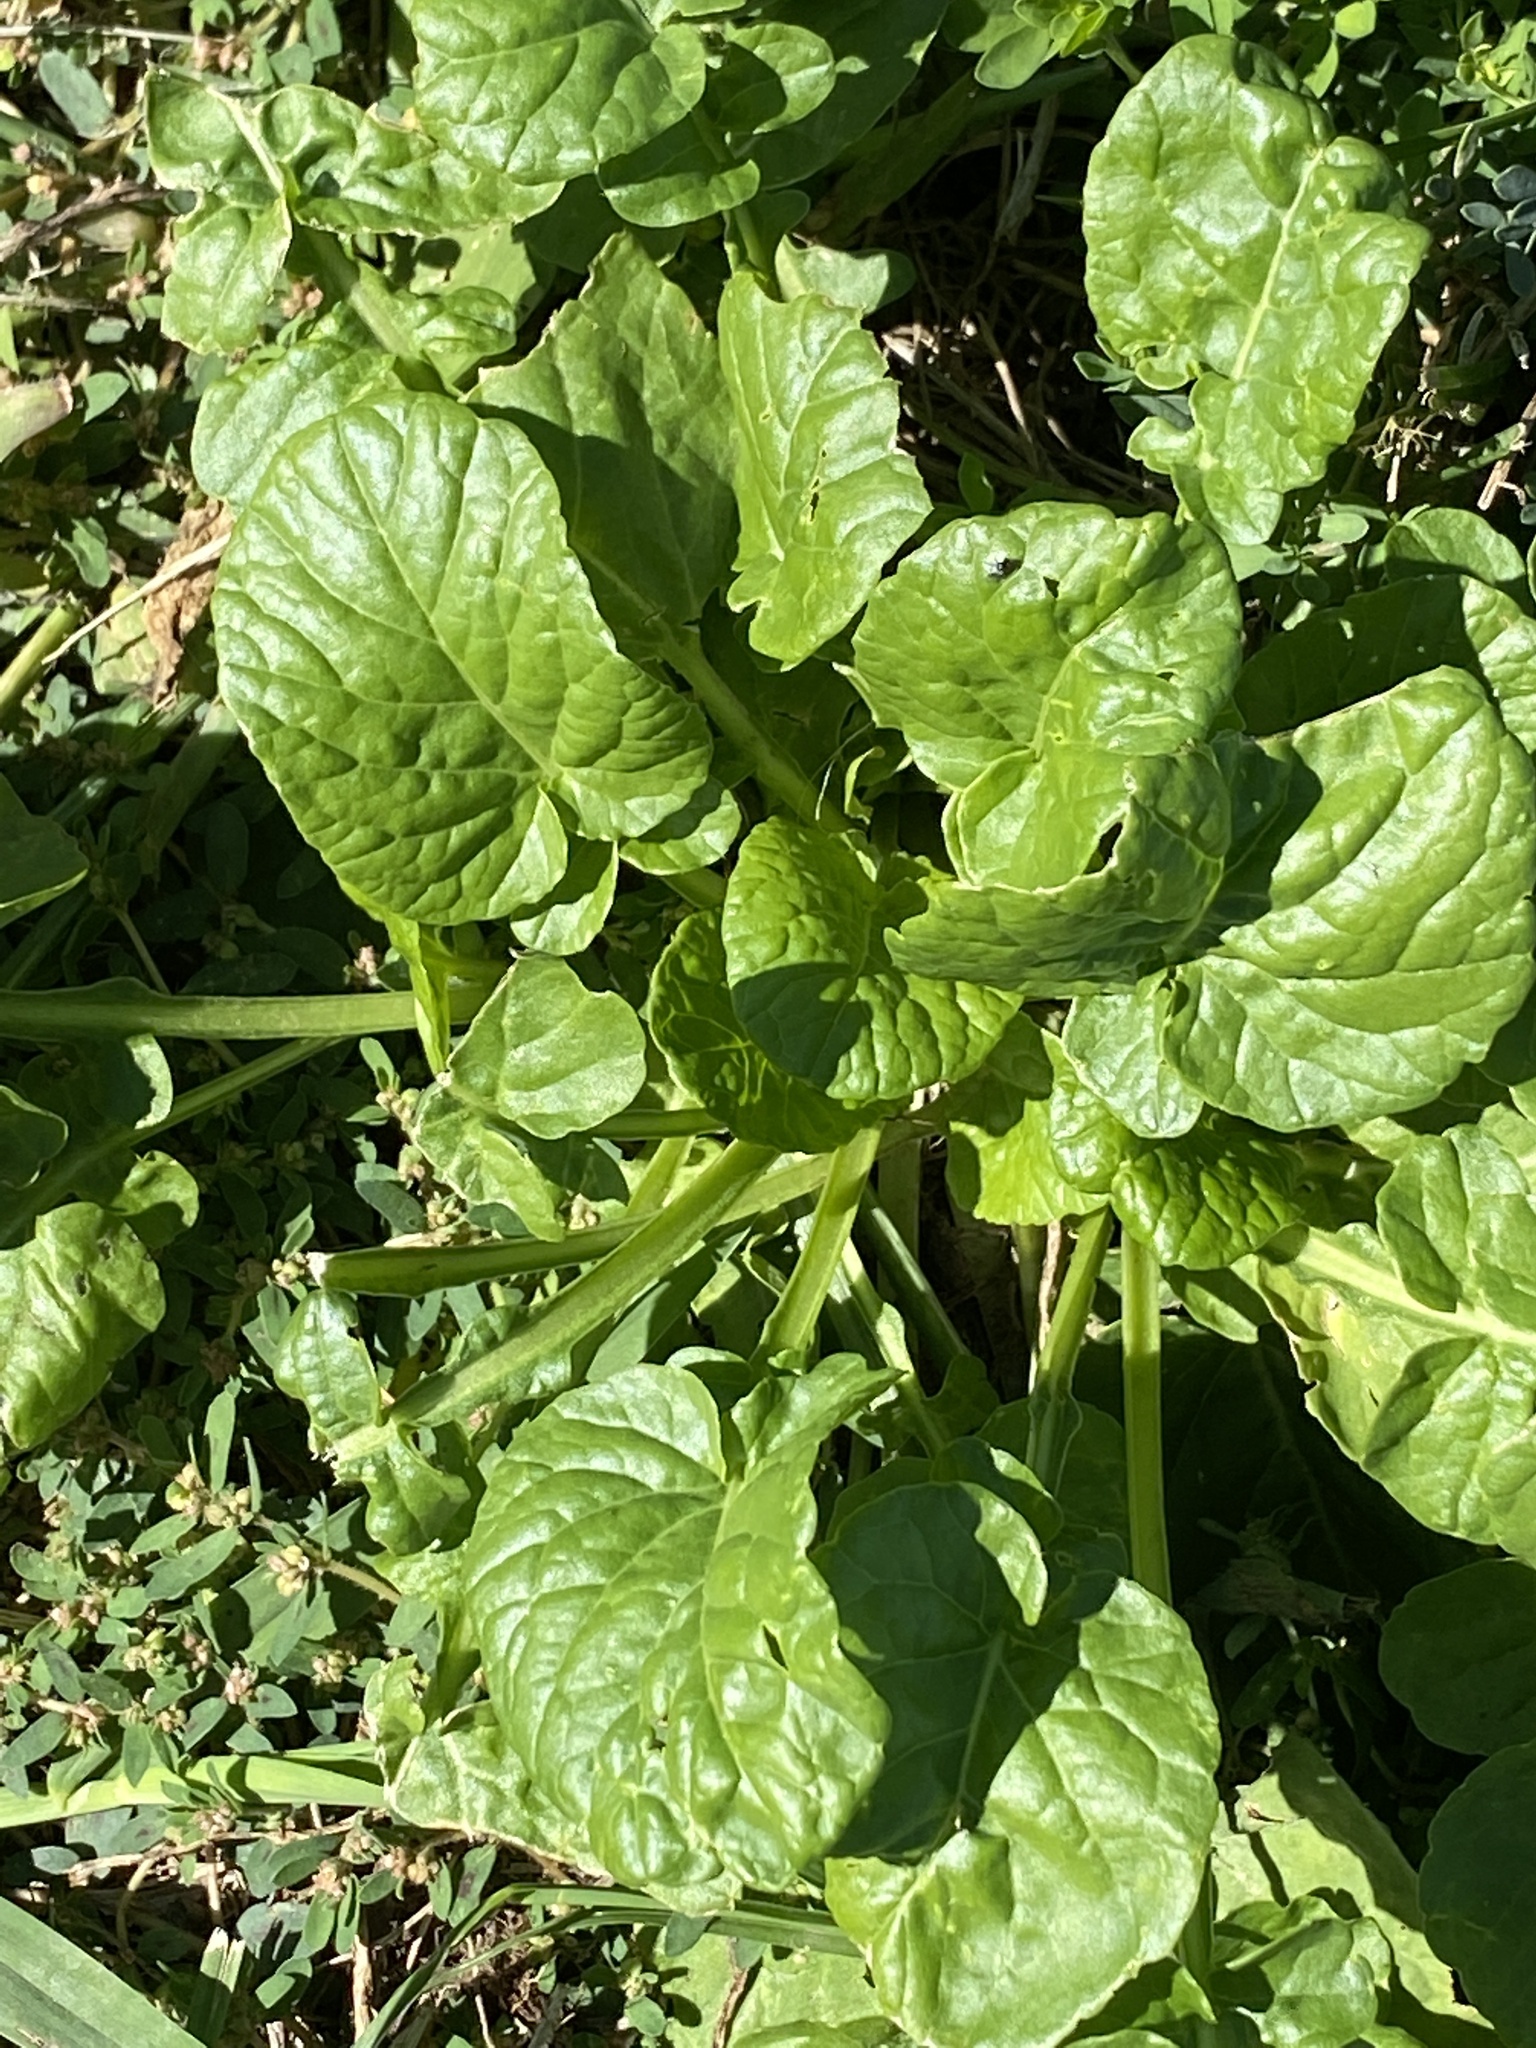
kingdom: Plantae
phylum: Tracheophyta
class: Magnoliopsida
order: Brassicales
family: Brassicaceae
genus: Barbarea
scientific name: Barbarea vulgaris
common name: Cressy-greens
